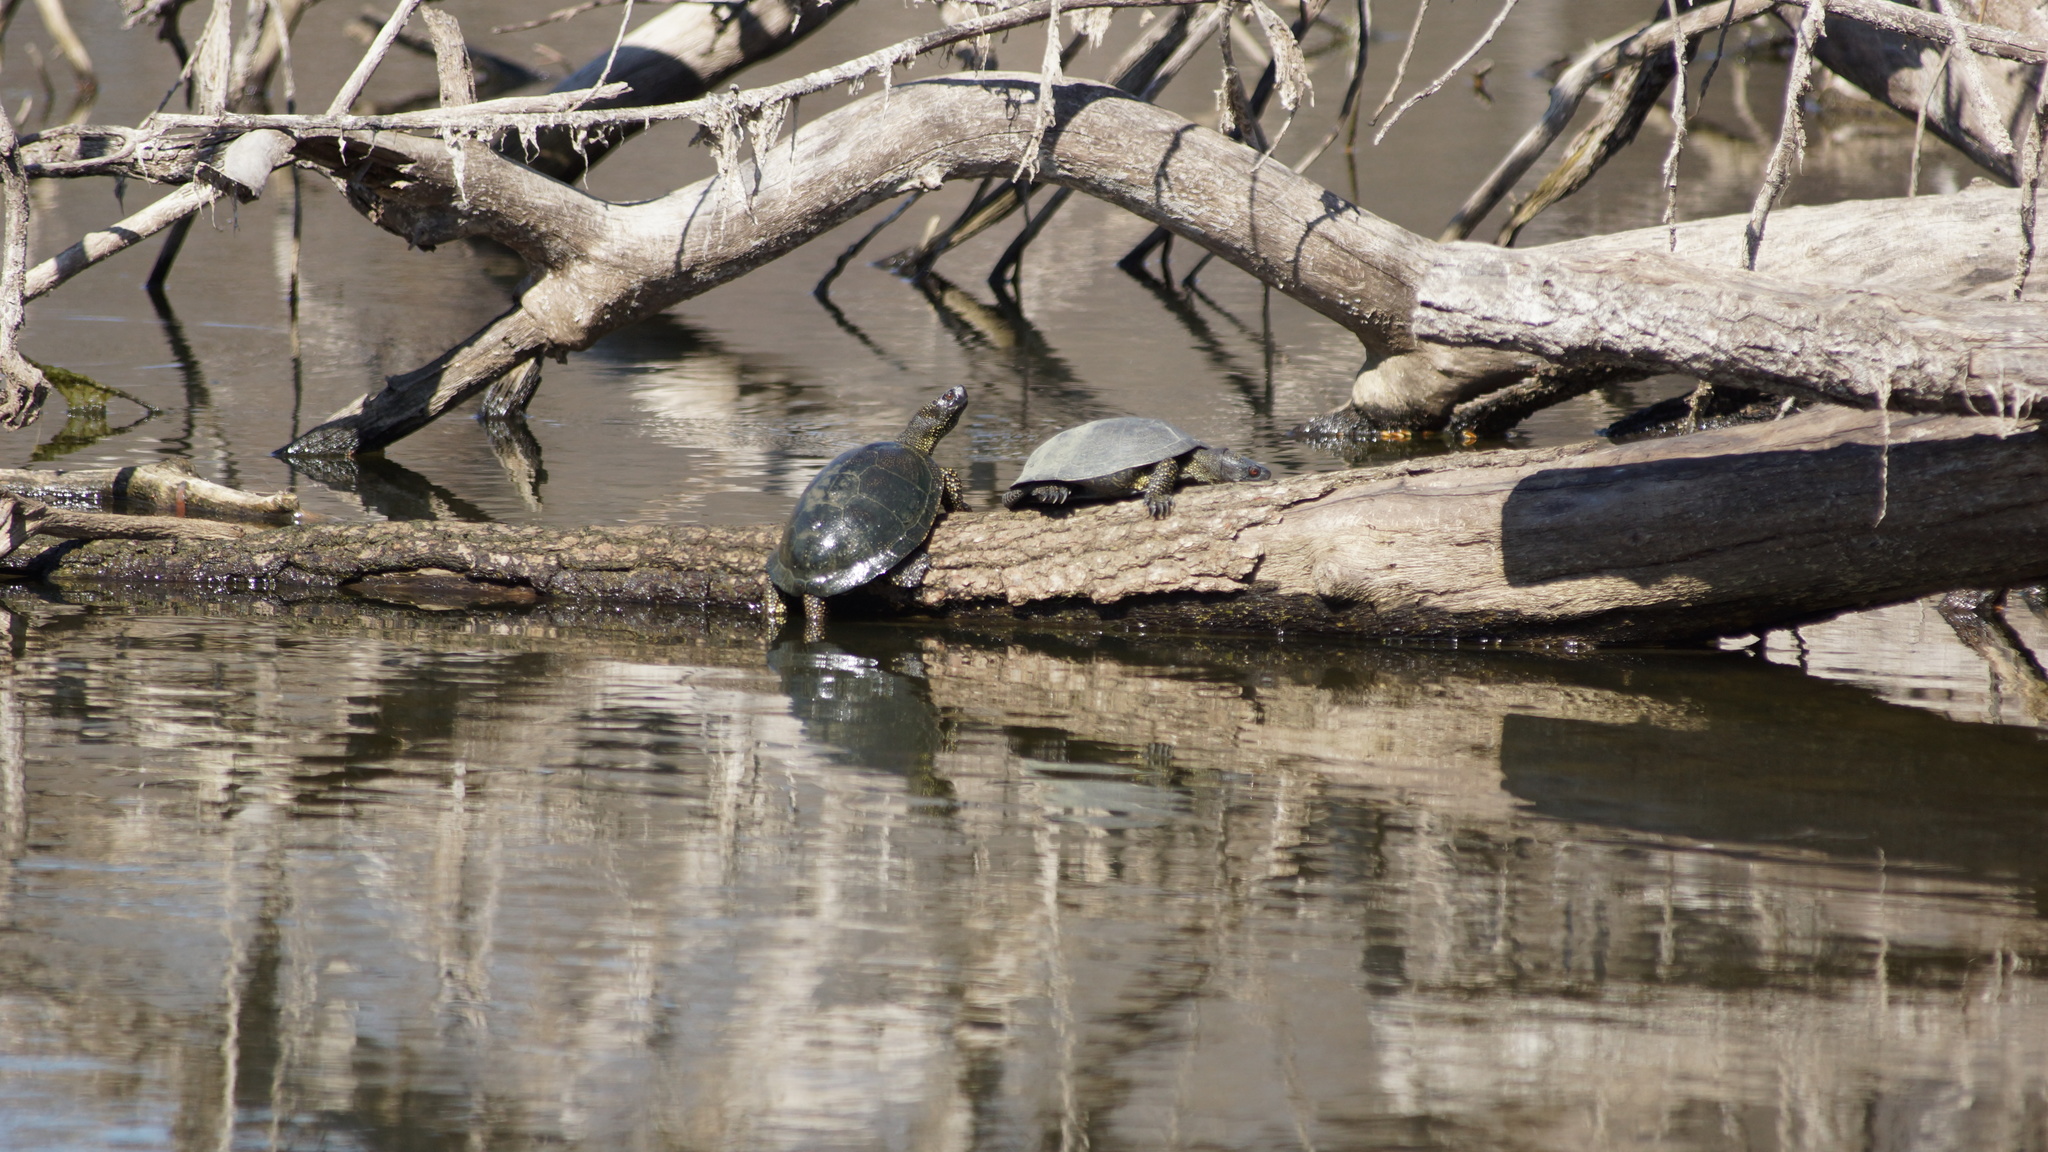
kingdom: Animalia
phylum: Chordata
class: Testudines
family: Emydidae
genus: Emys
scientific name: Emys orbicularis
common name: European pond turtle
